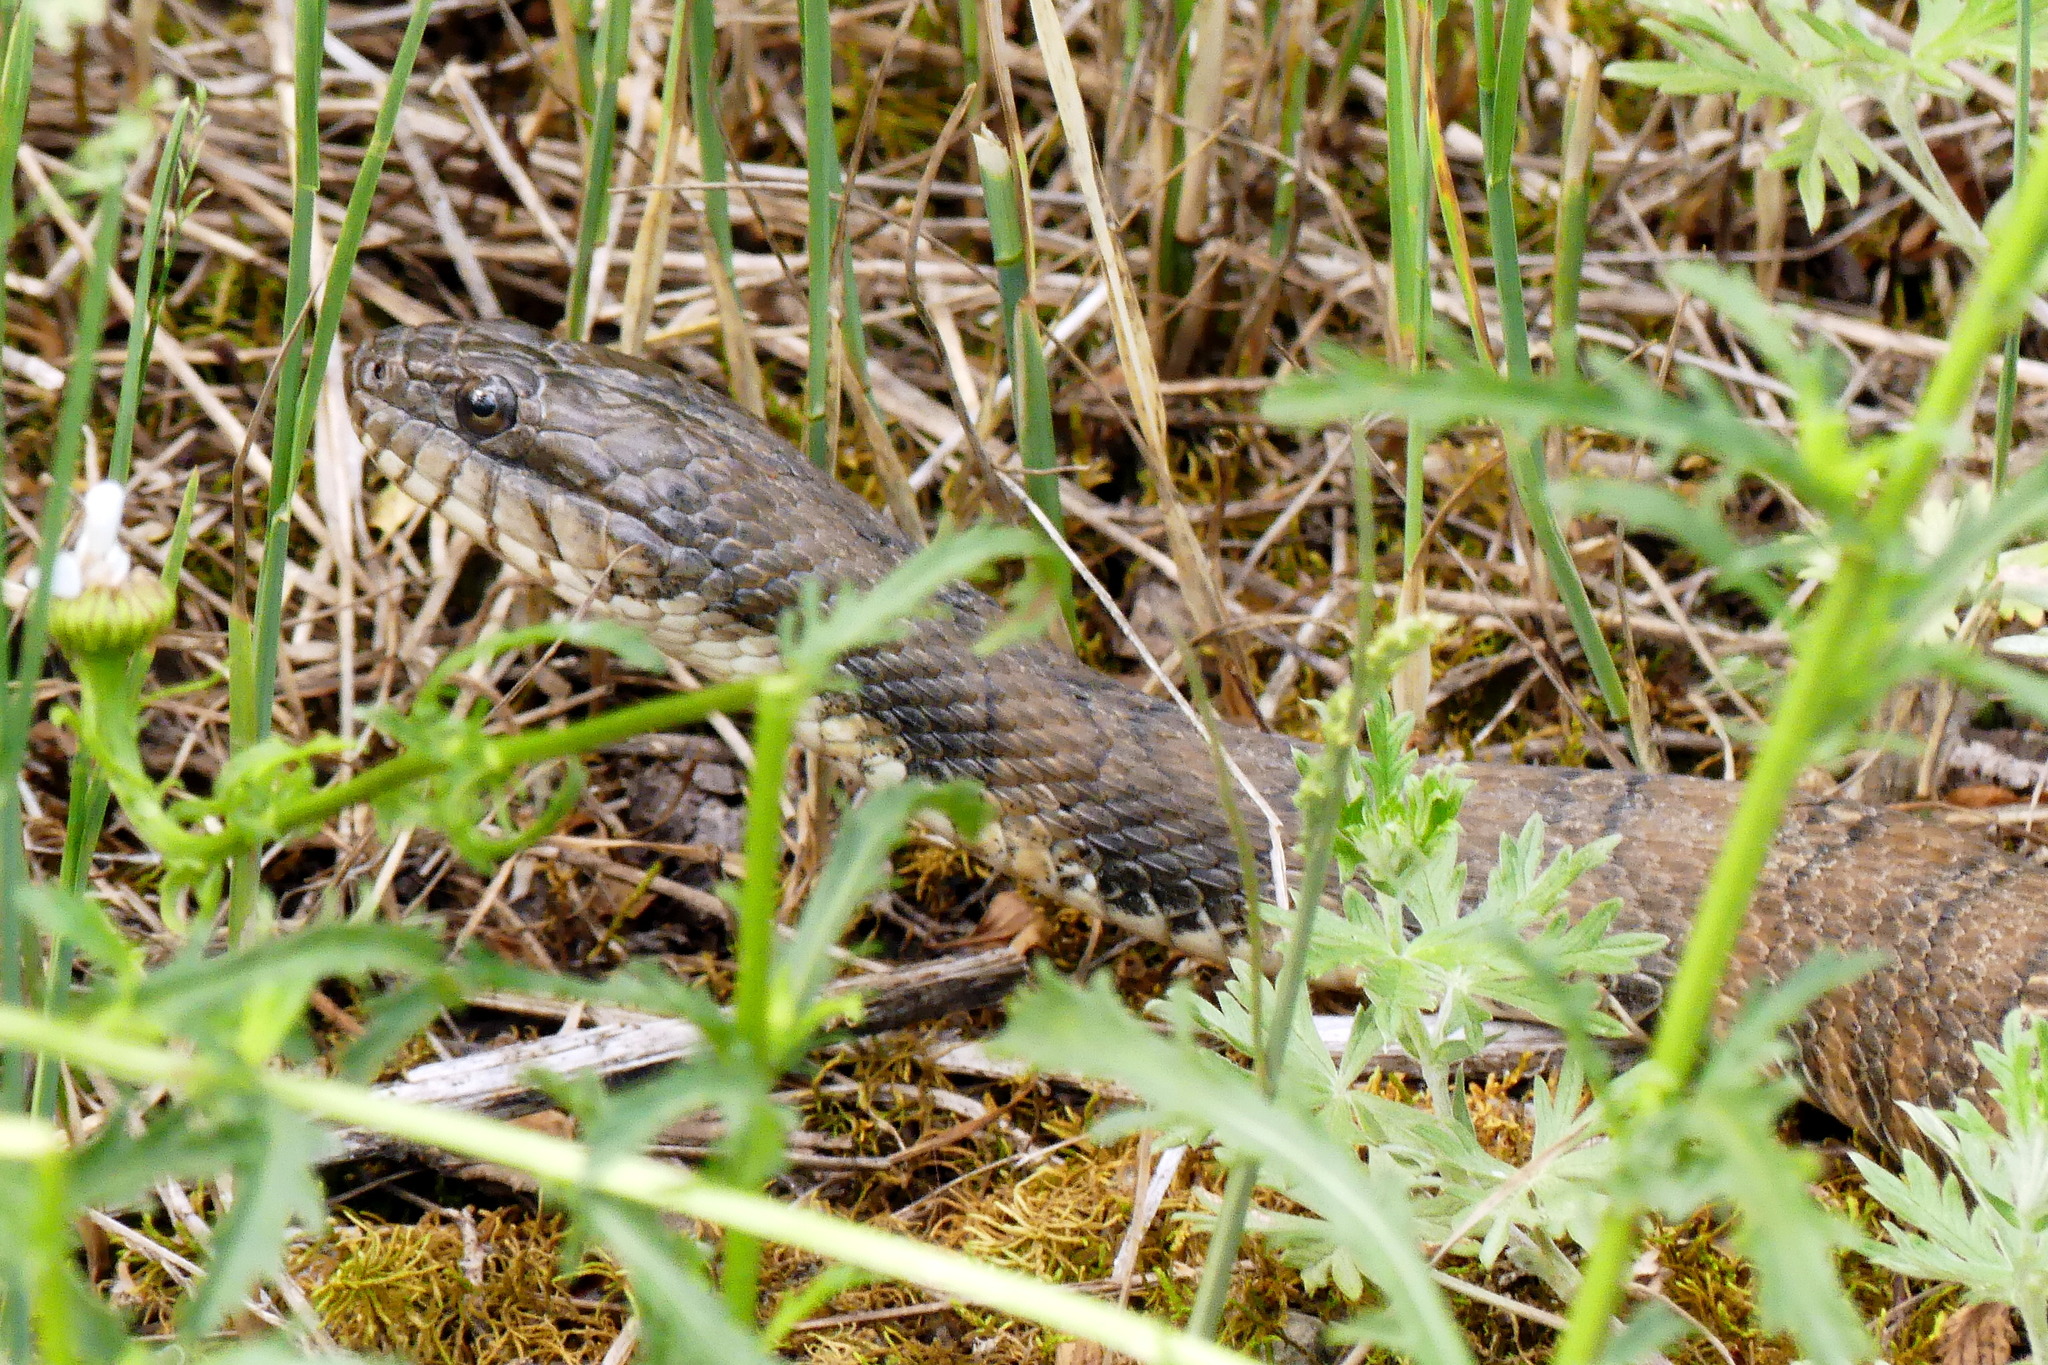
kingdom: Animalia
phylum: Chordata
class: Squamata
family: Colubridae
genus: Nerodia
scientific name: Nerodia sipedon
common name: Northern water snake
